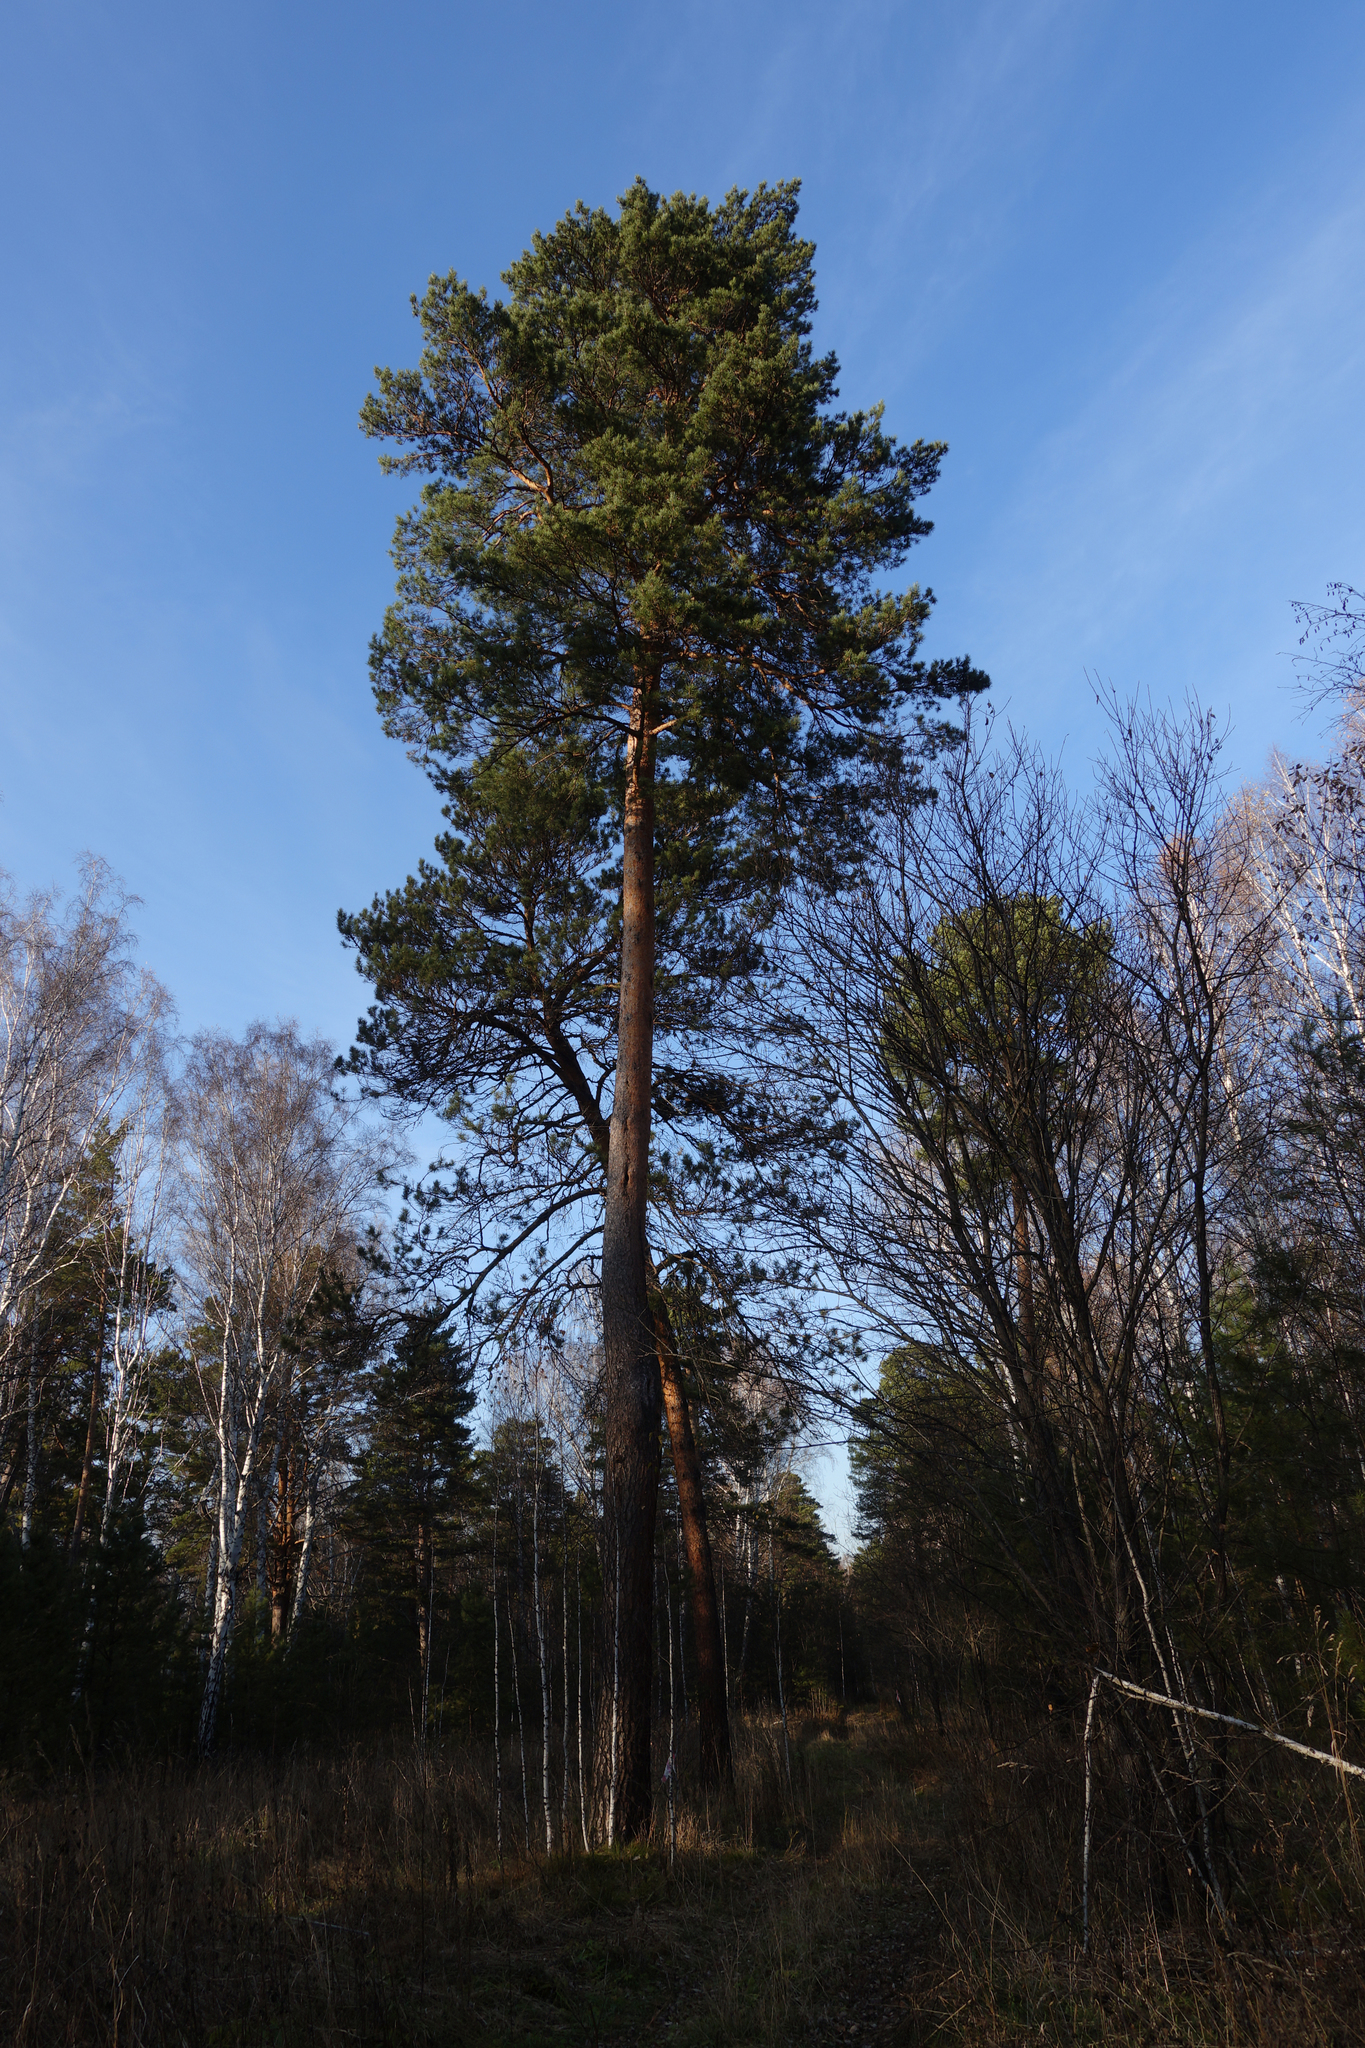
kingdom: Plantae
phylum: Tracheophyta
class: Pinopsida
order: Pinales
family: Pinaceae
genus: Pinus
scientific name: Pinus sylvestris
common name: Scots pine
